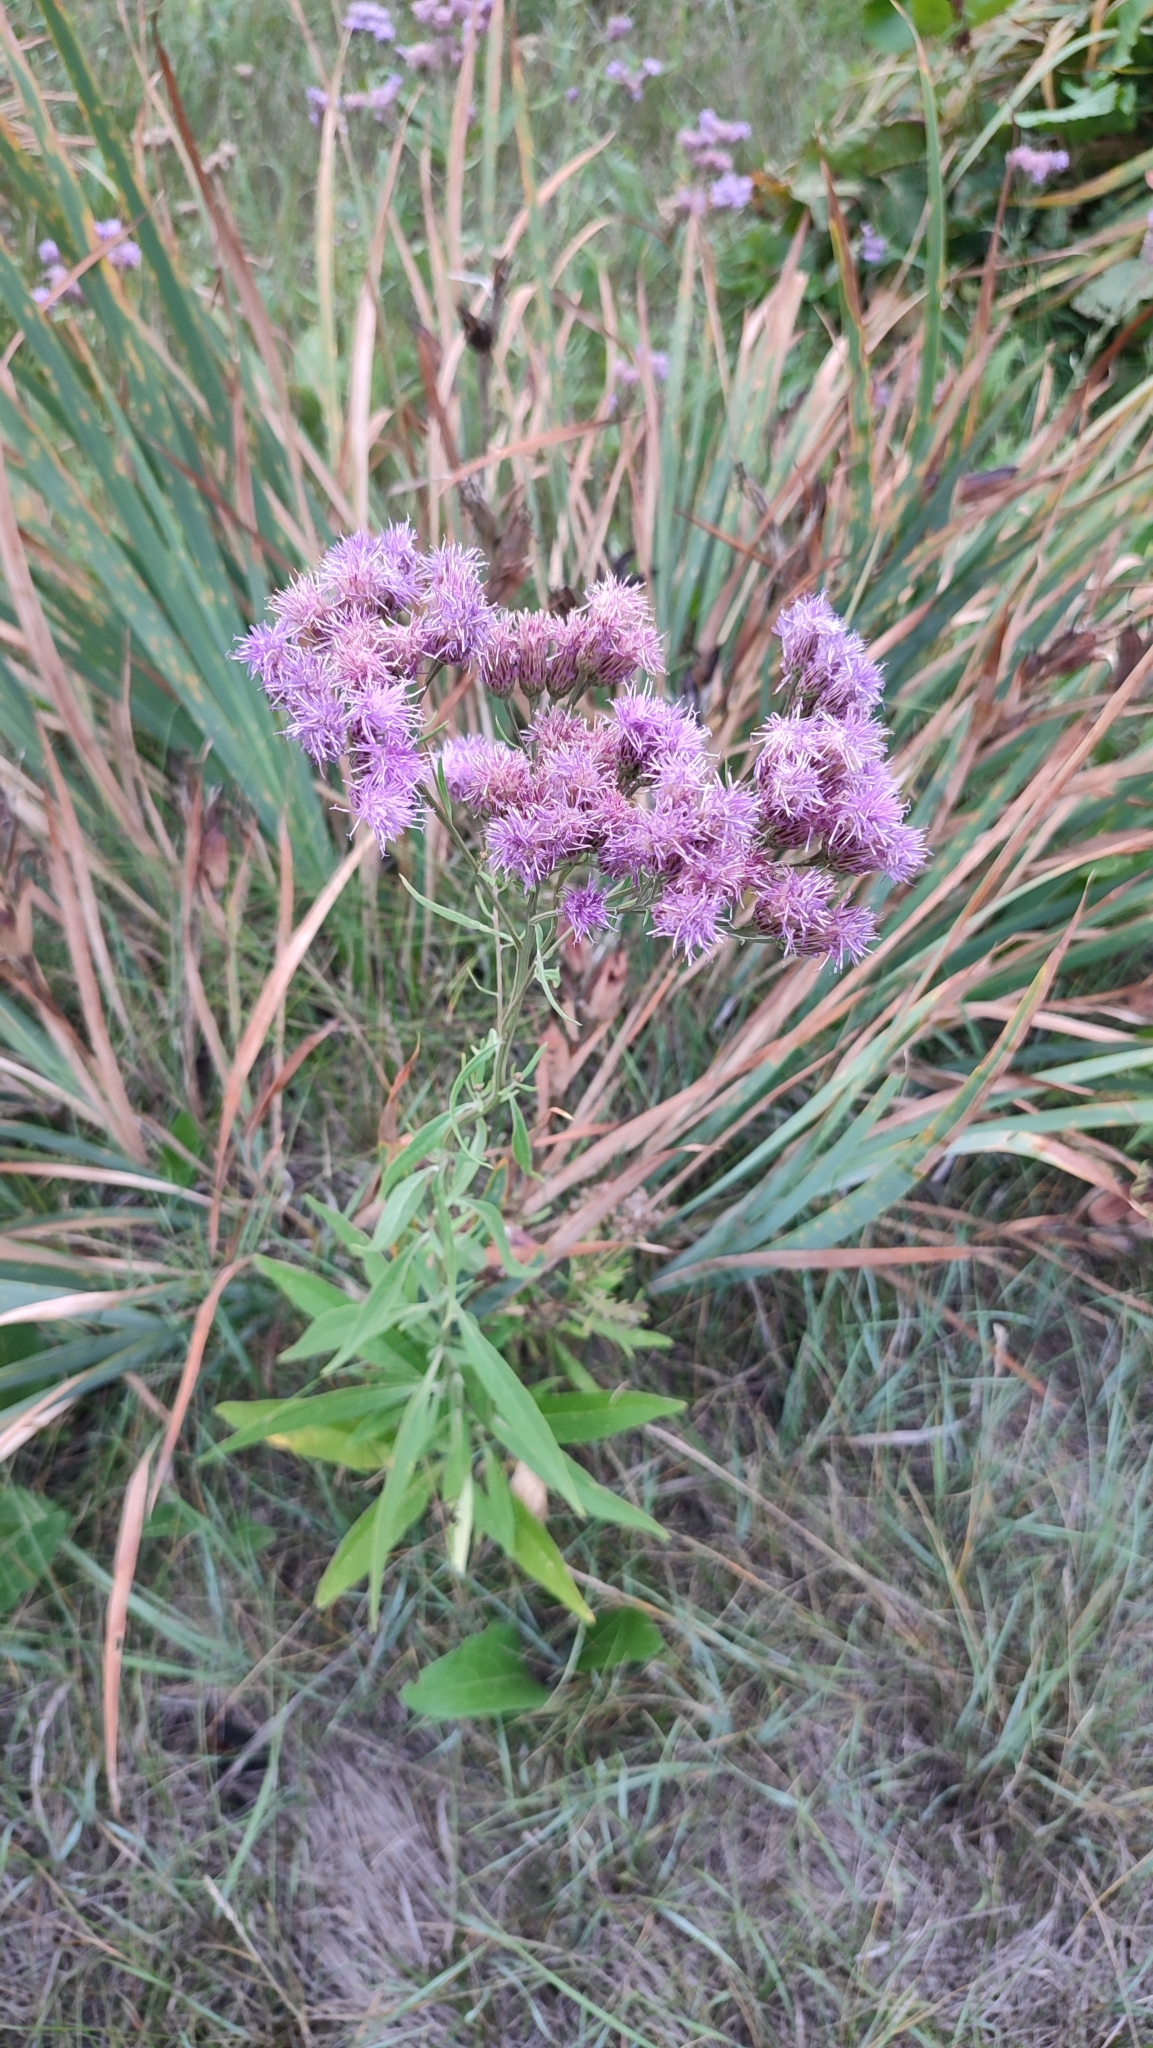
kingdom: Plantae
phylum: Tracheophyta
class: Magnoliopsida
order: Asterales
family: Asteraceae
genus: Saussurea
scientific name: Saussurea amara
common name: Alberta sawwort
